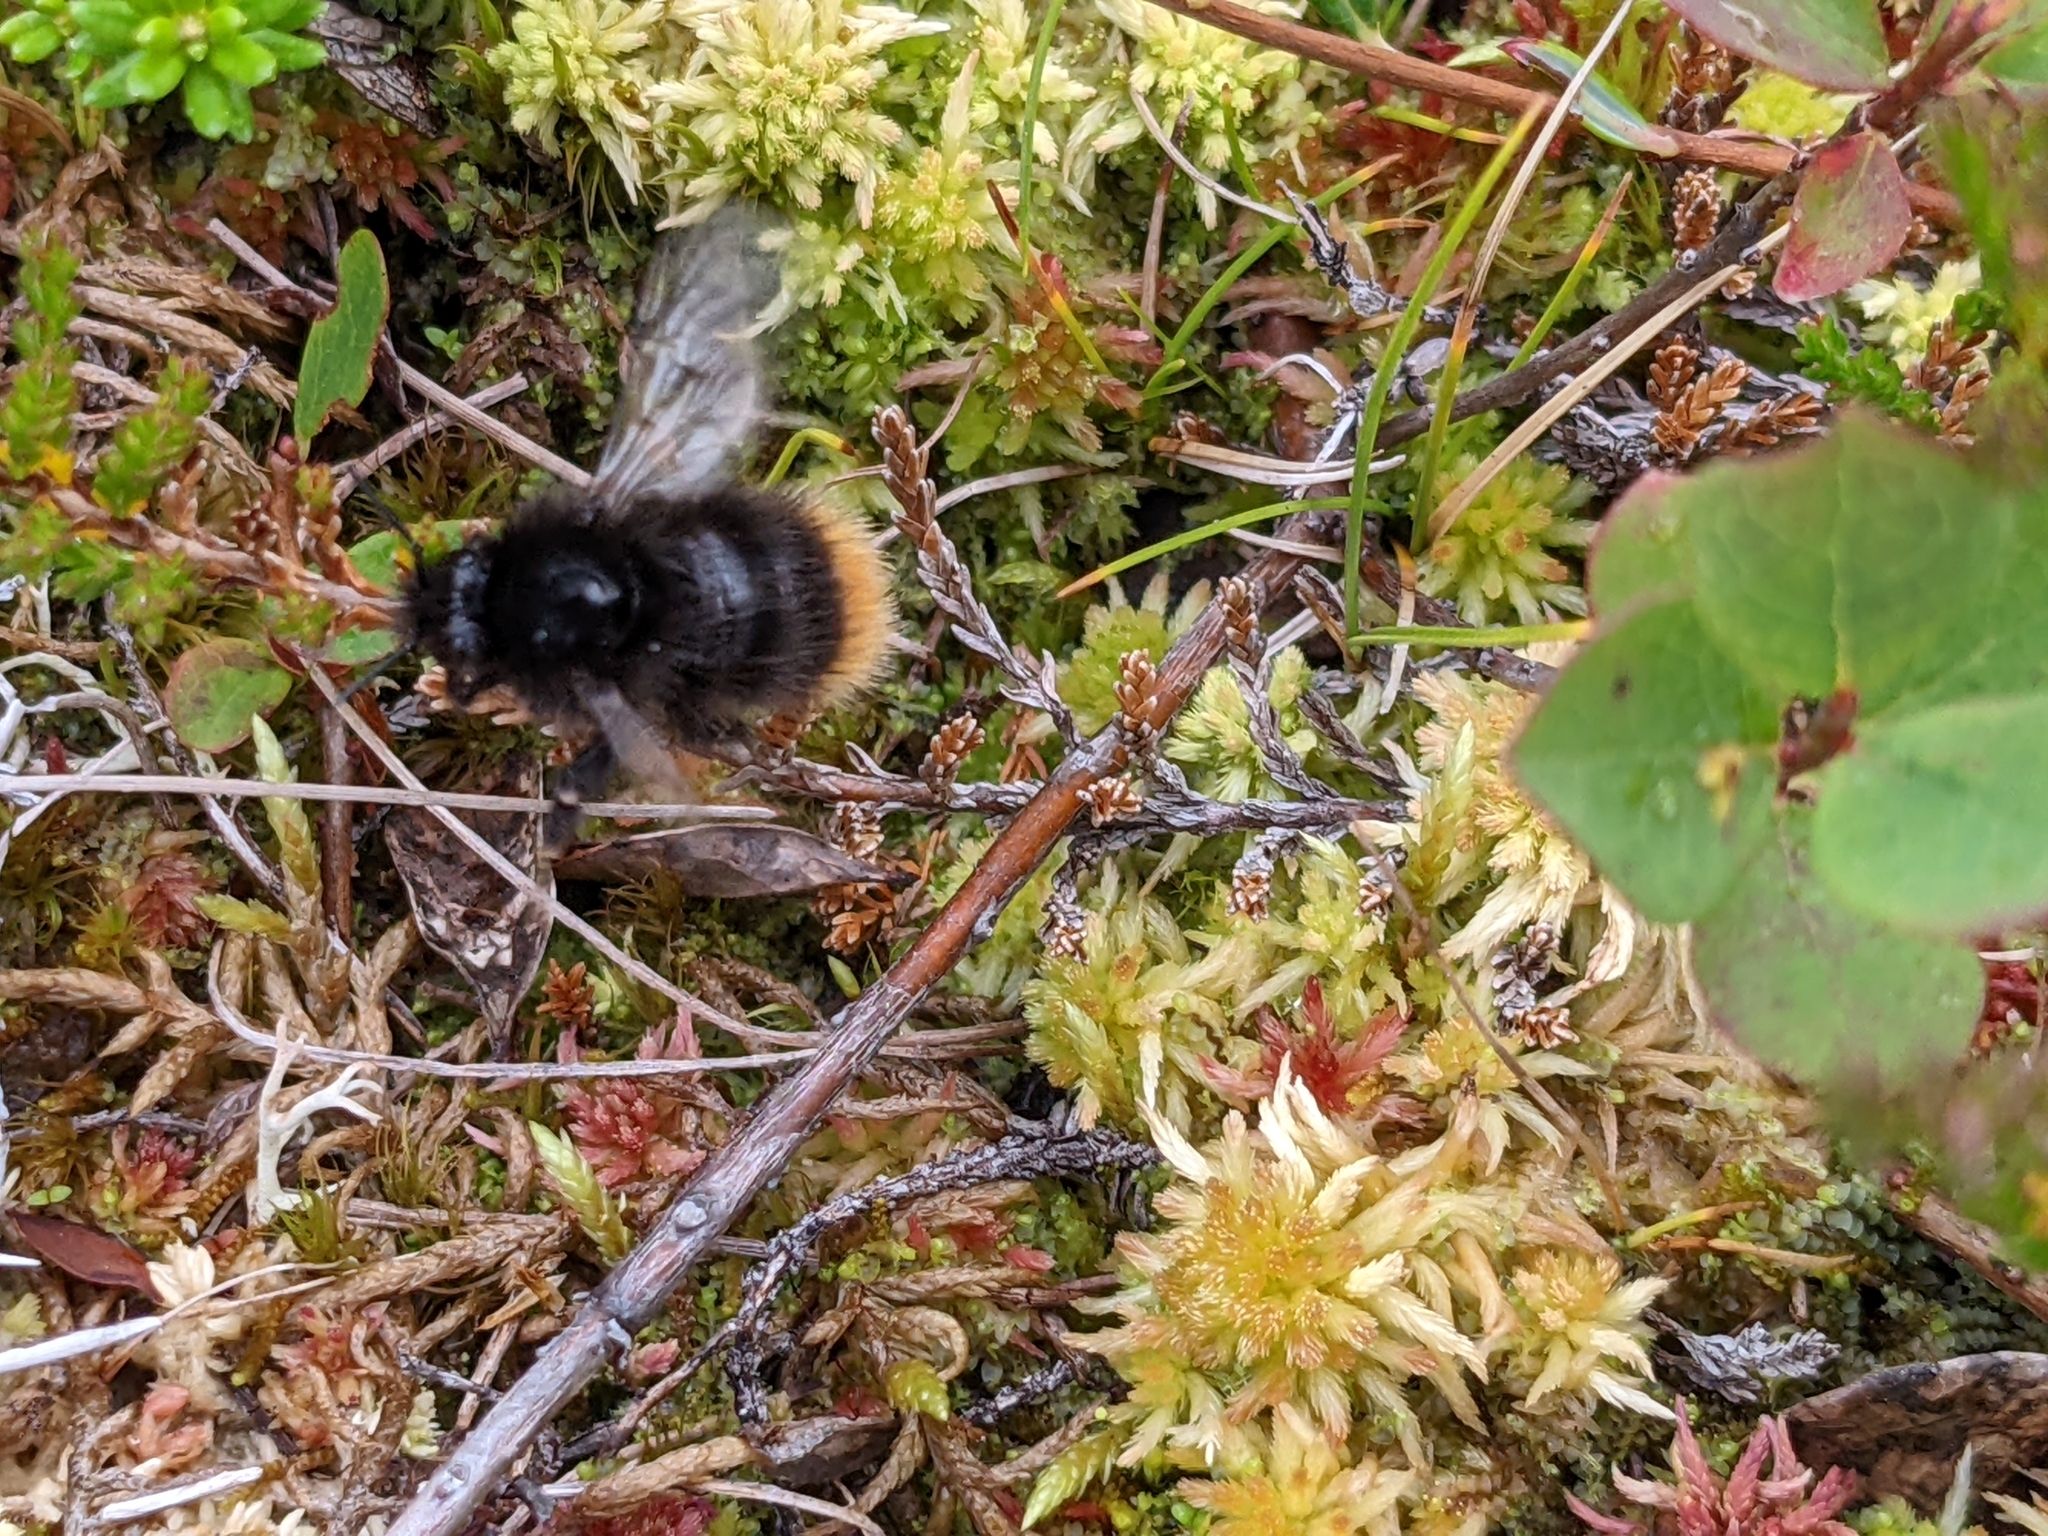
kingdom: Animalia
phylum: Arthropoda
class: Insecta
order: Hymenoptera
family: Apidae
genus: Bombus
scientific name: Bombus wurflenii
